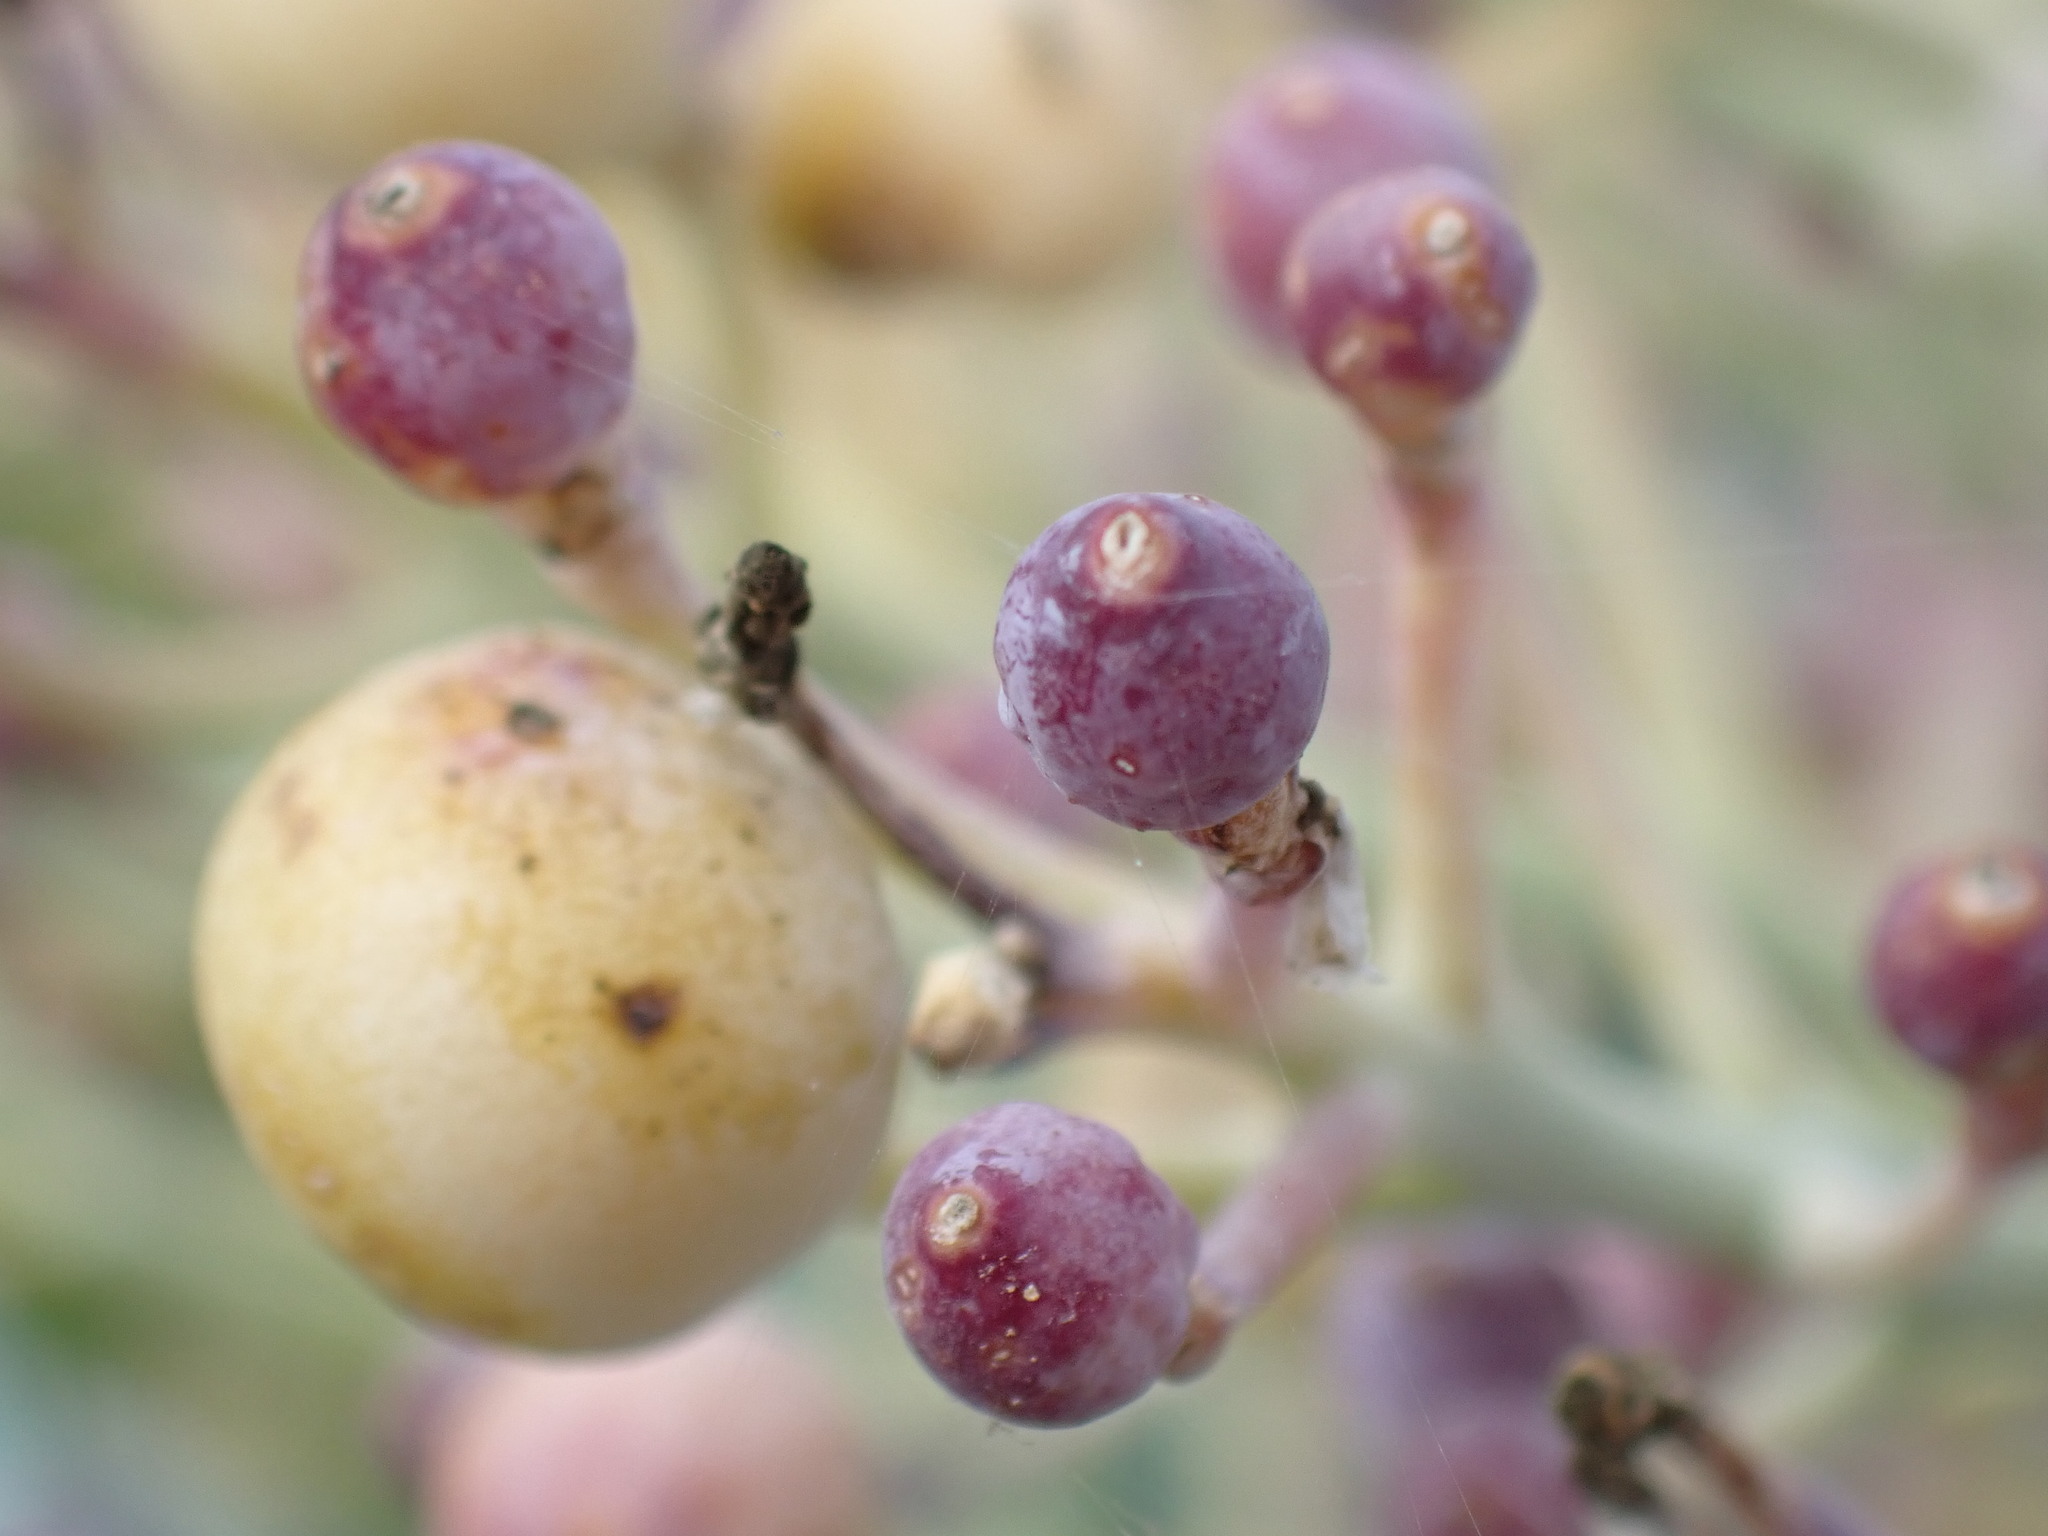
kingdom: Plantae
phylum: Tracheophyta
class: Magnoliopsida
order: Brassicales
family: Brassicaceae
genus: Crambe
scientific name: Crambe maritima
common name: Sea-kale
